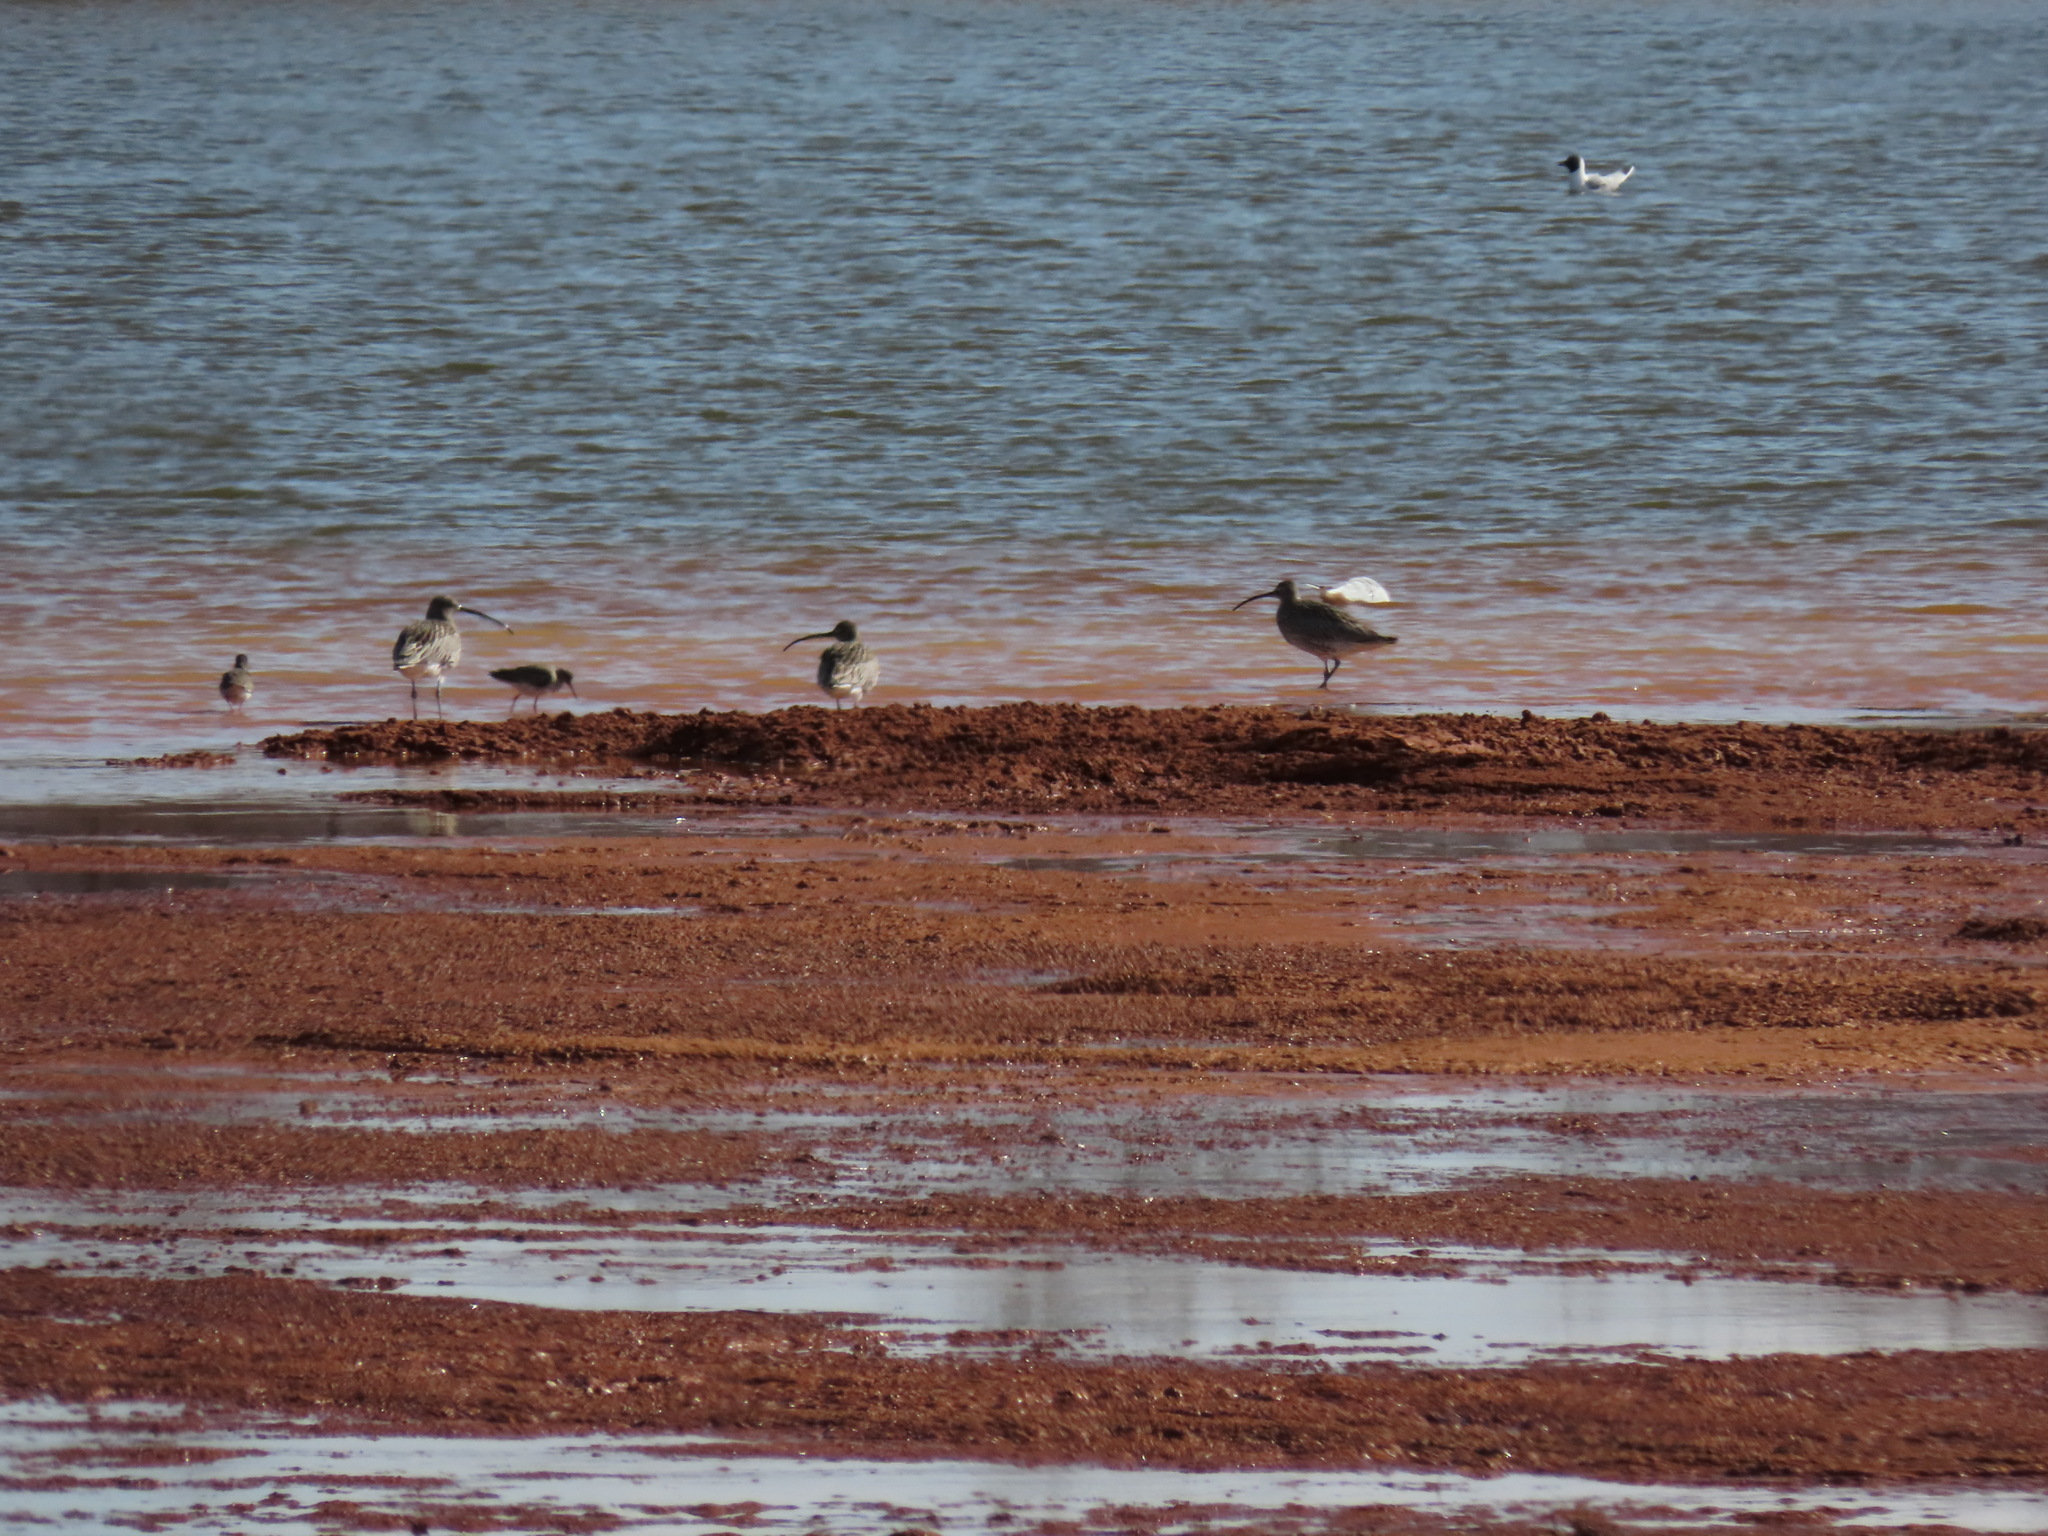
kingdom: Animalia
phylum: Chordata
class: Aves
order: Charadriiformes
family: Scolopacidae
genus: Numenius
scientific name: Numenius arquata
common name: Eurasian curlew
